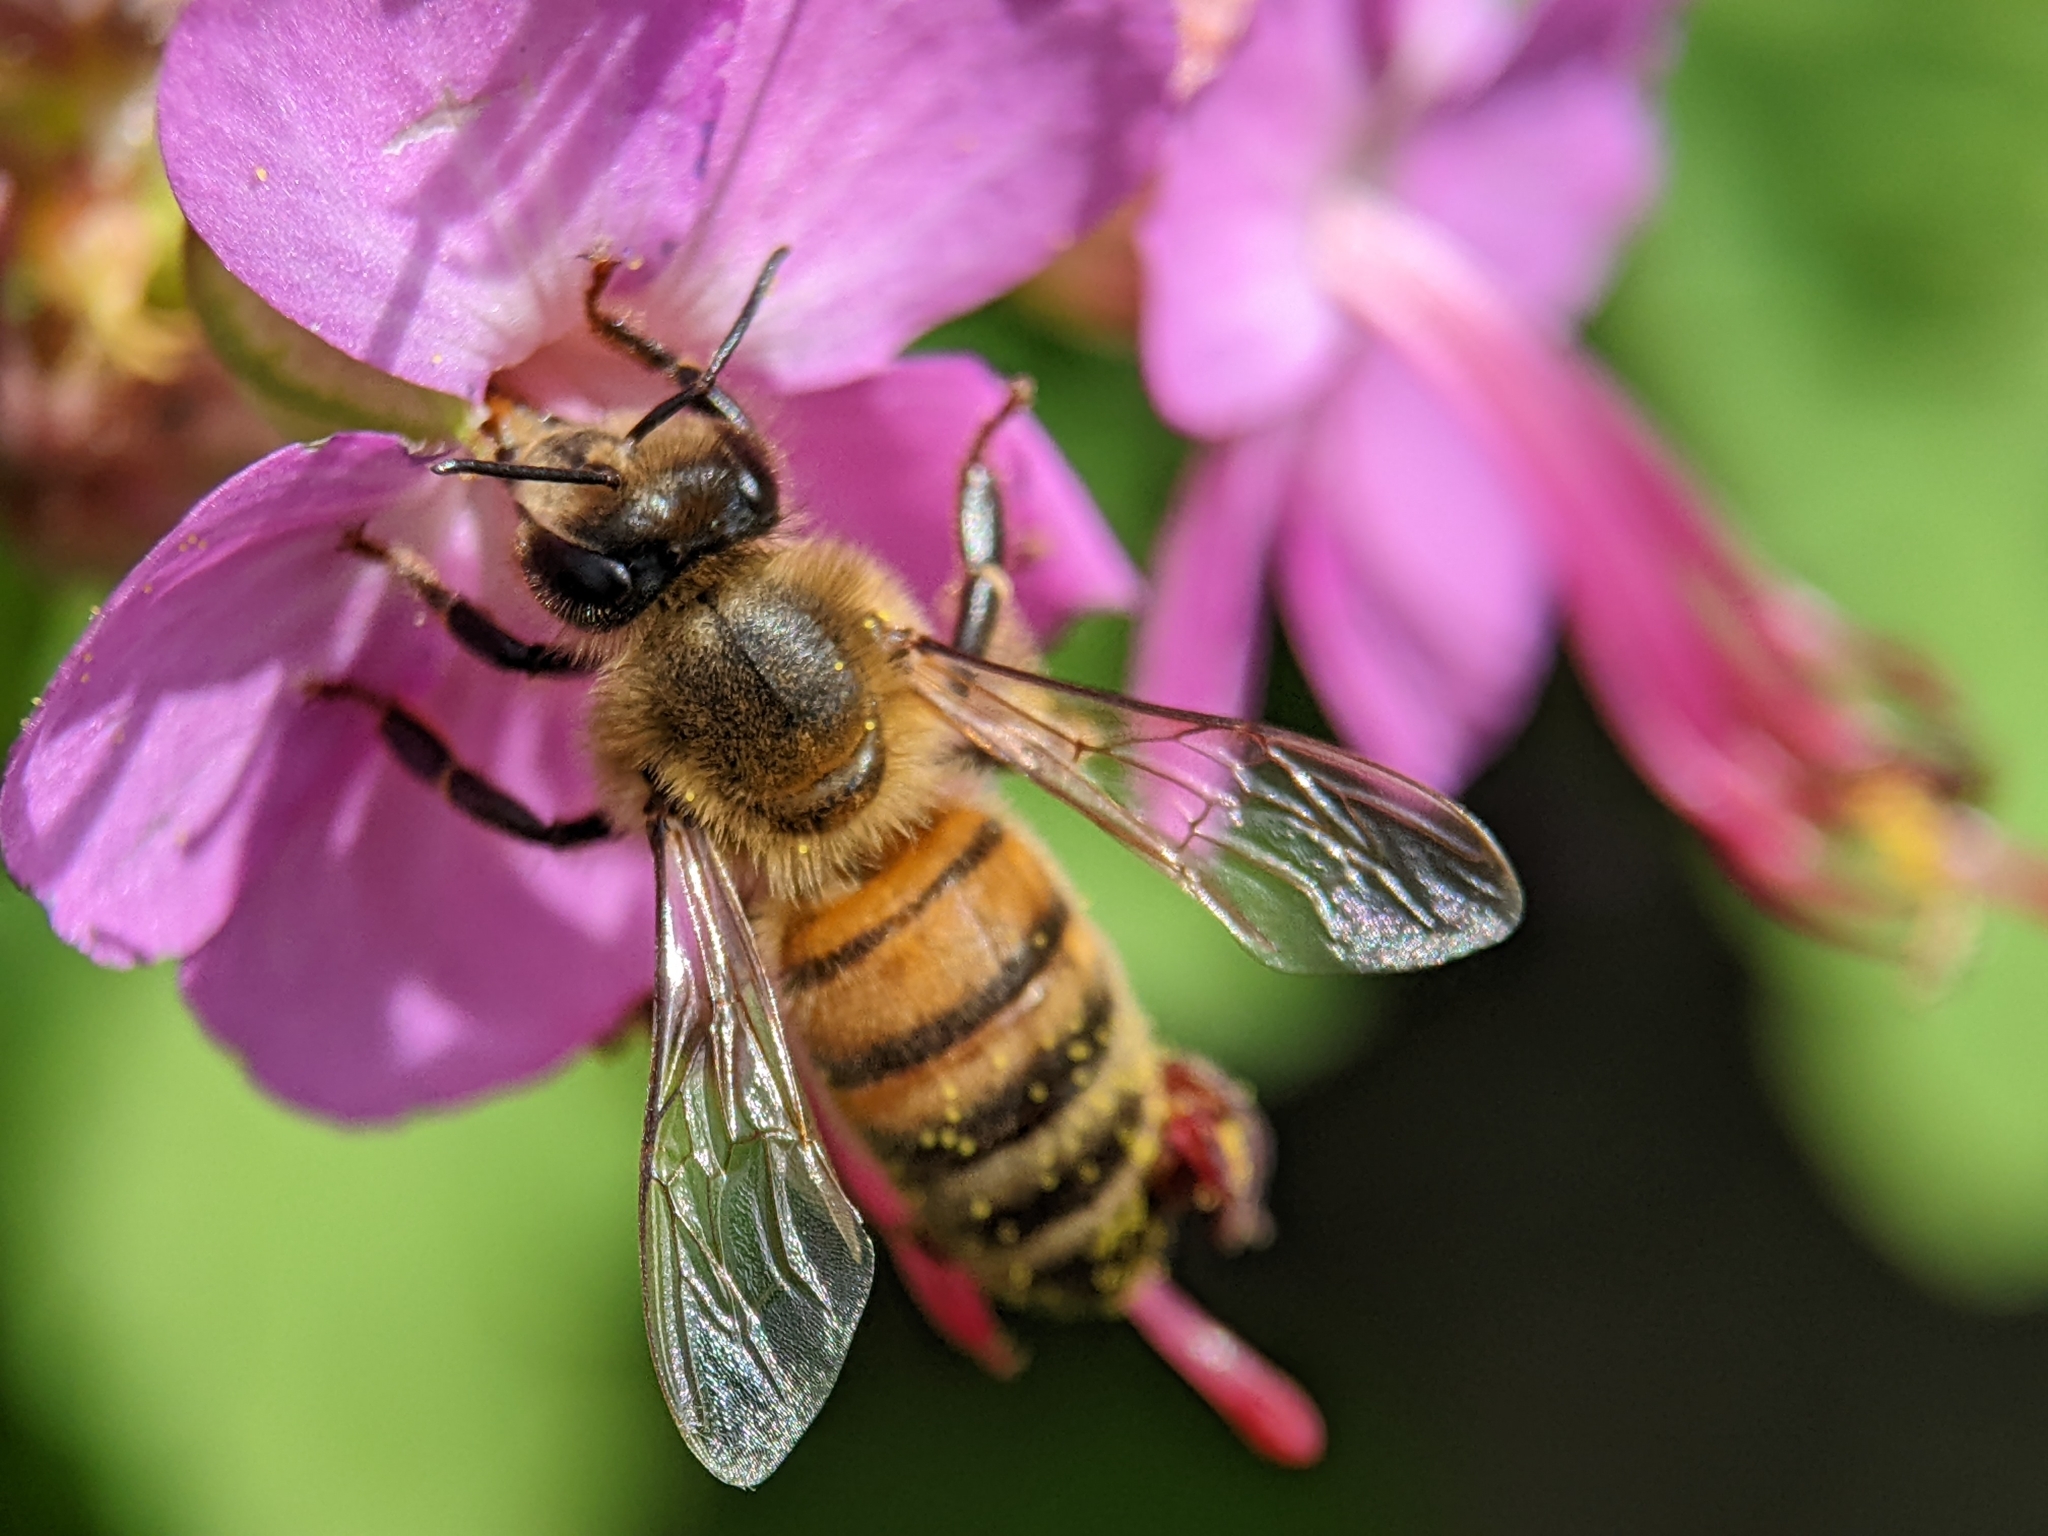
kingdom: Animalia
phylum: Arthropoda
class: Insecta
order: Hymenoptera
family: Apidae
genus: Apis
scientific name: Apis mellifera
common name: Honey bee
